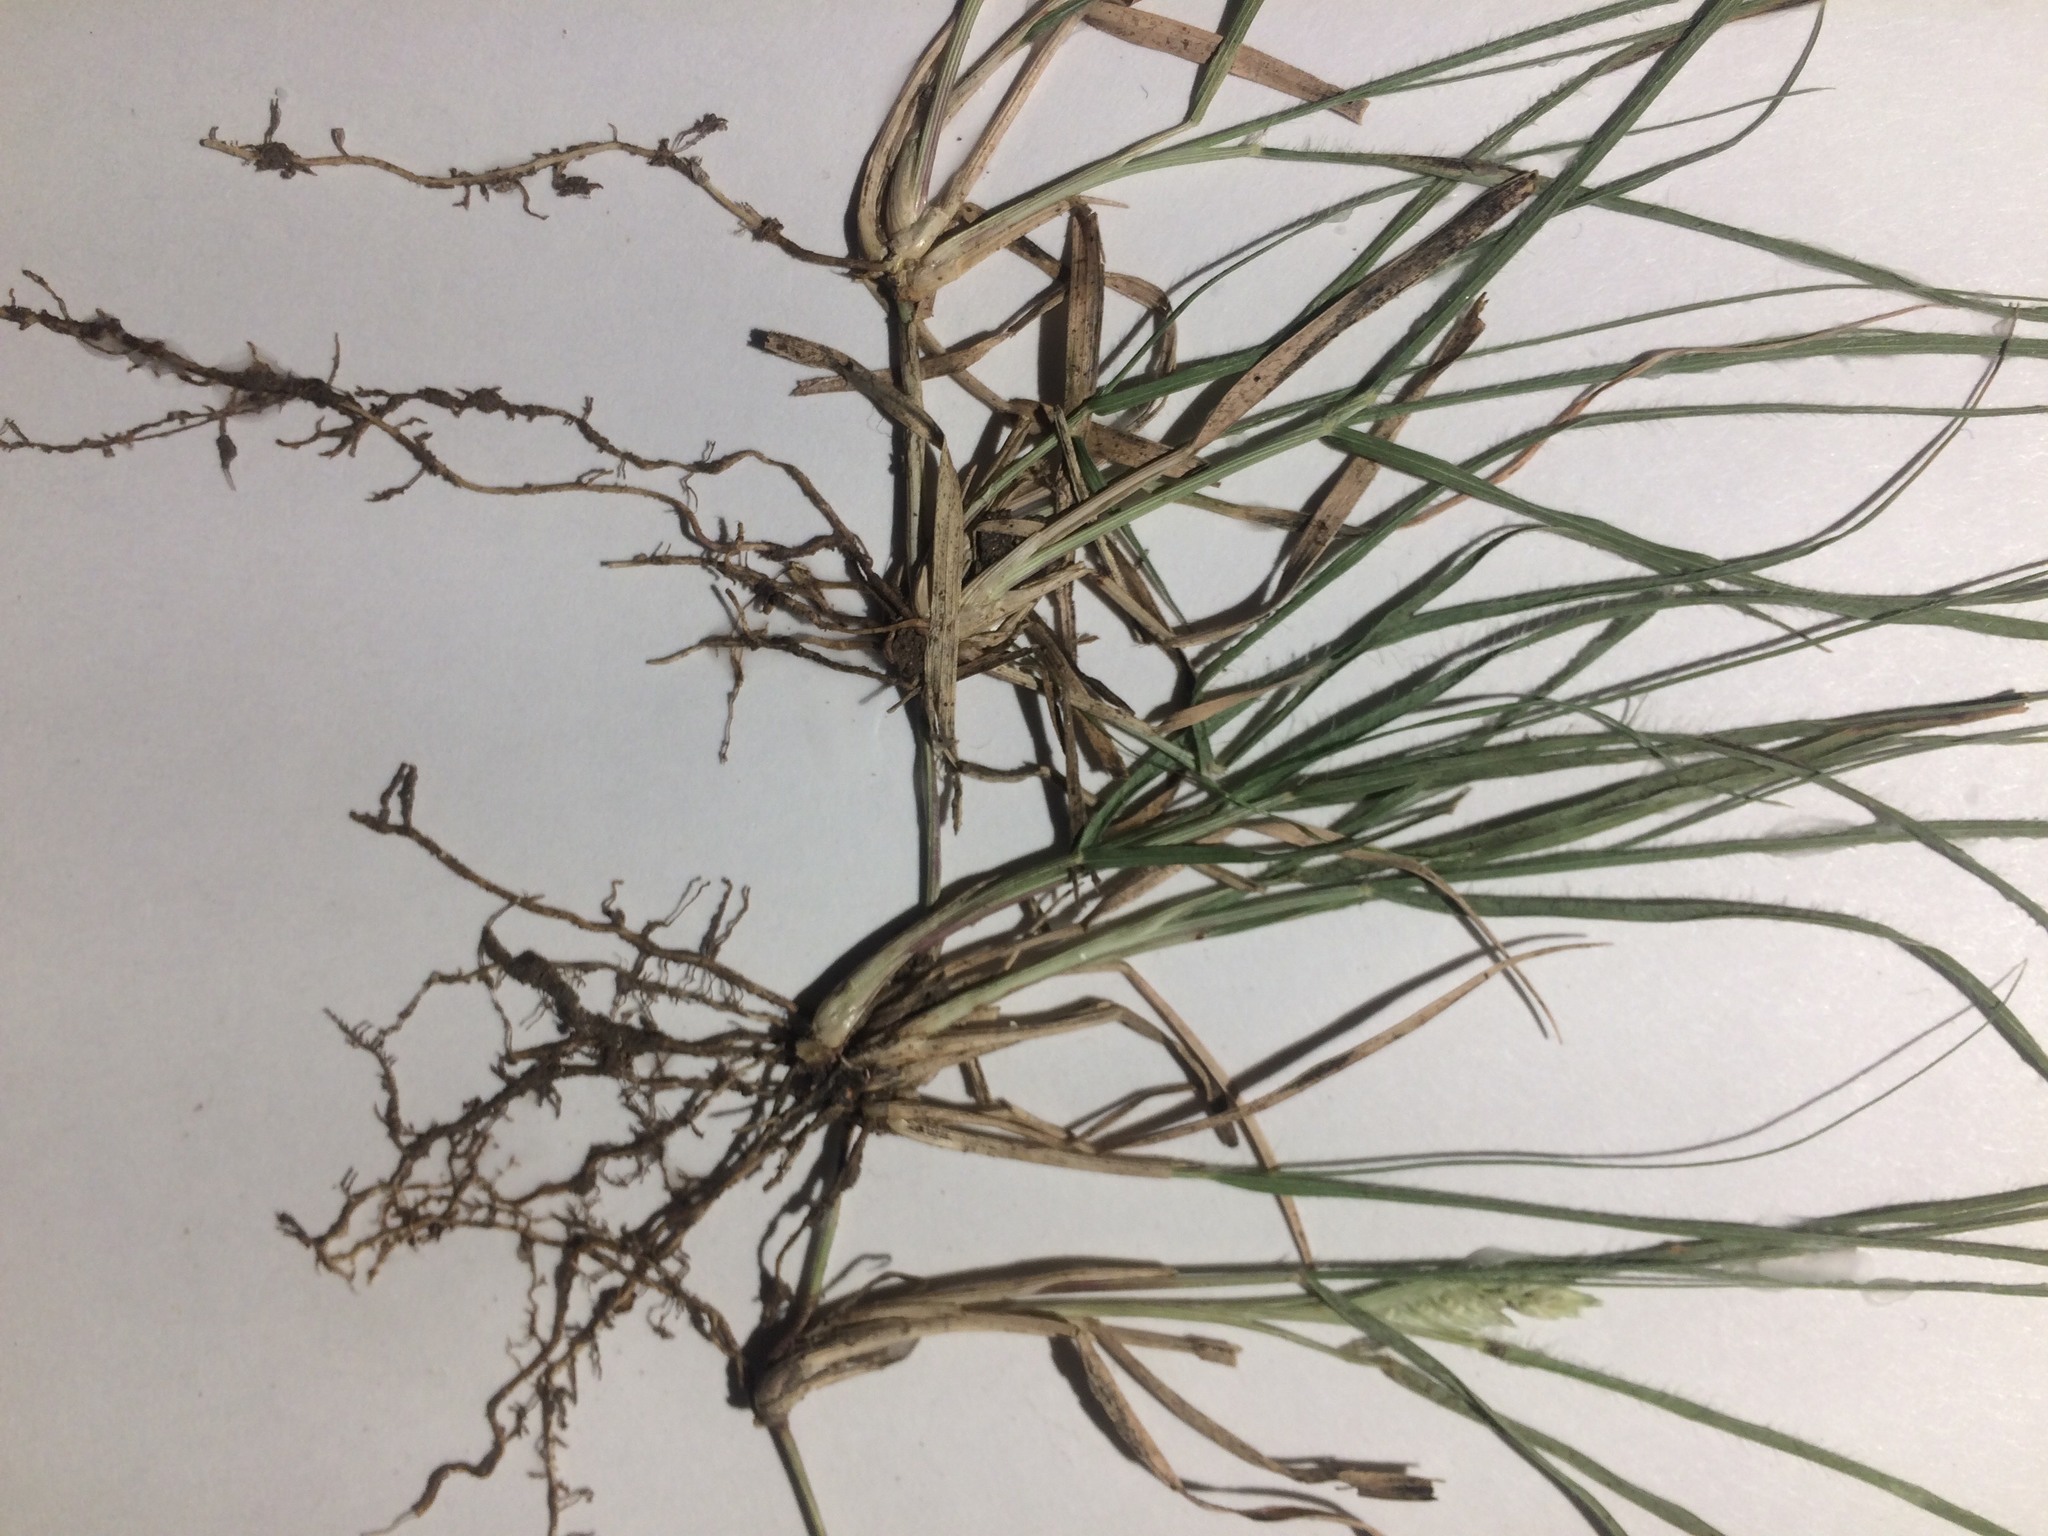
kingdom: Plantae
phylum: Tracheophyta
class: Liliopsida
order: Poales
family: Poaceae
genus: Bouteloua
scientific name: Bouteloua dactyloides
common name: Buffalo grass
